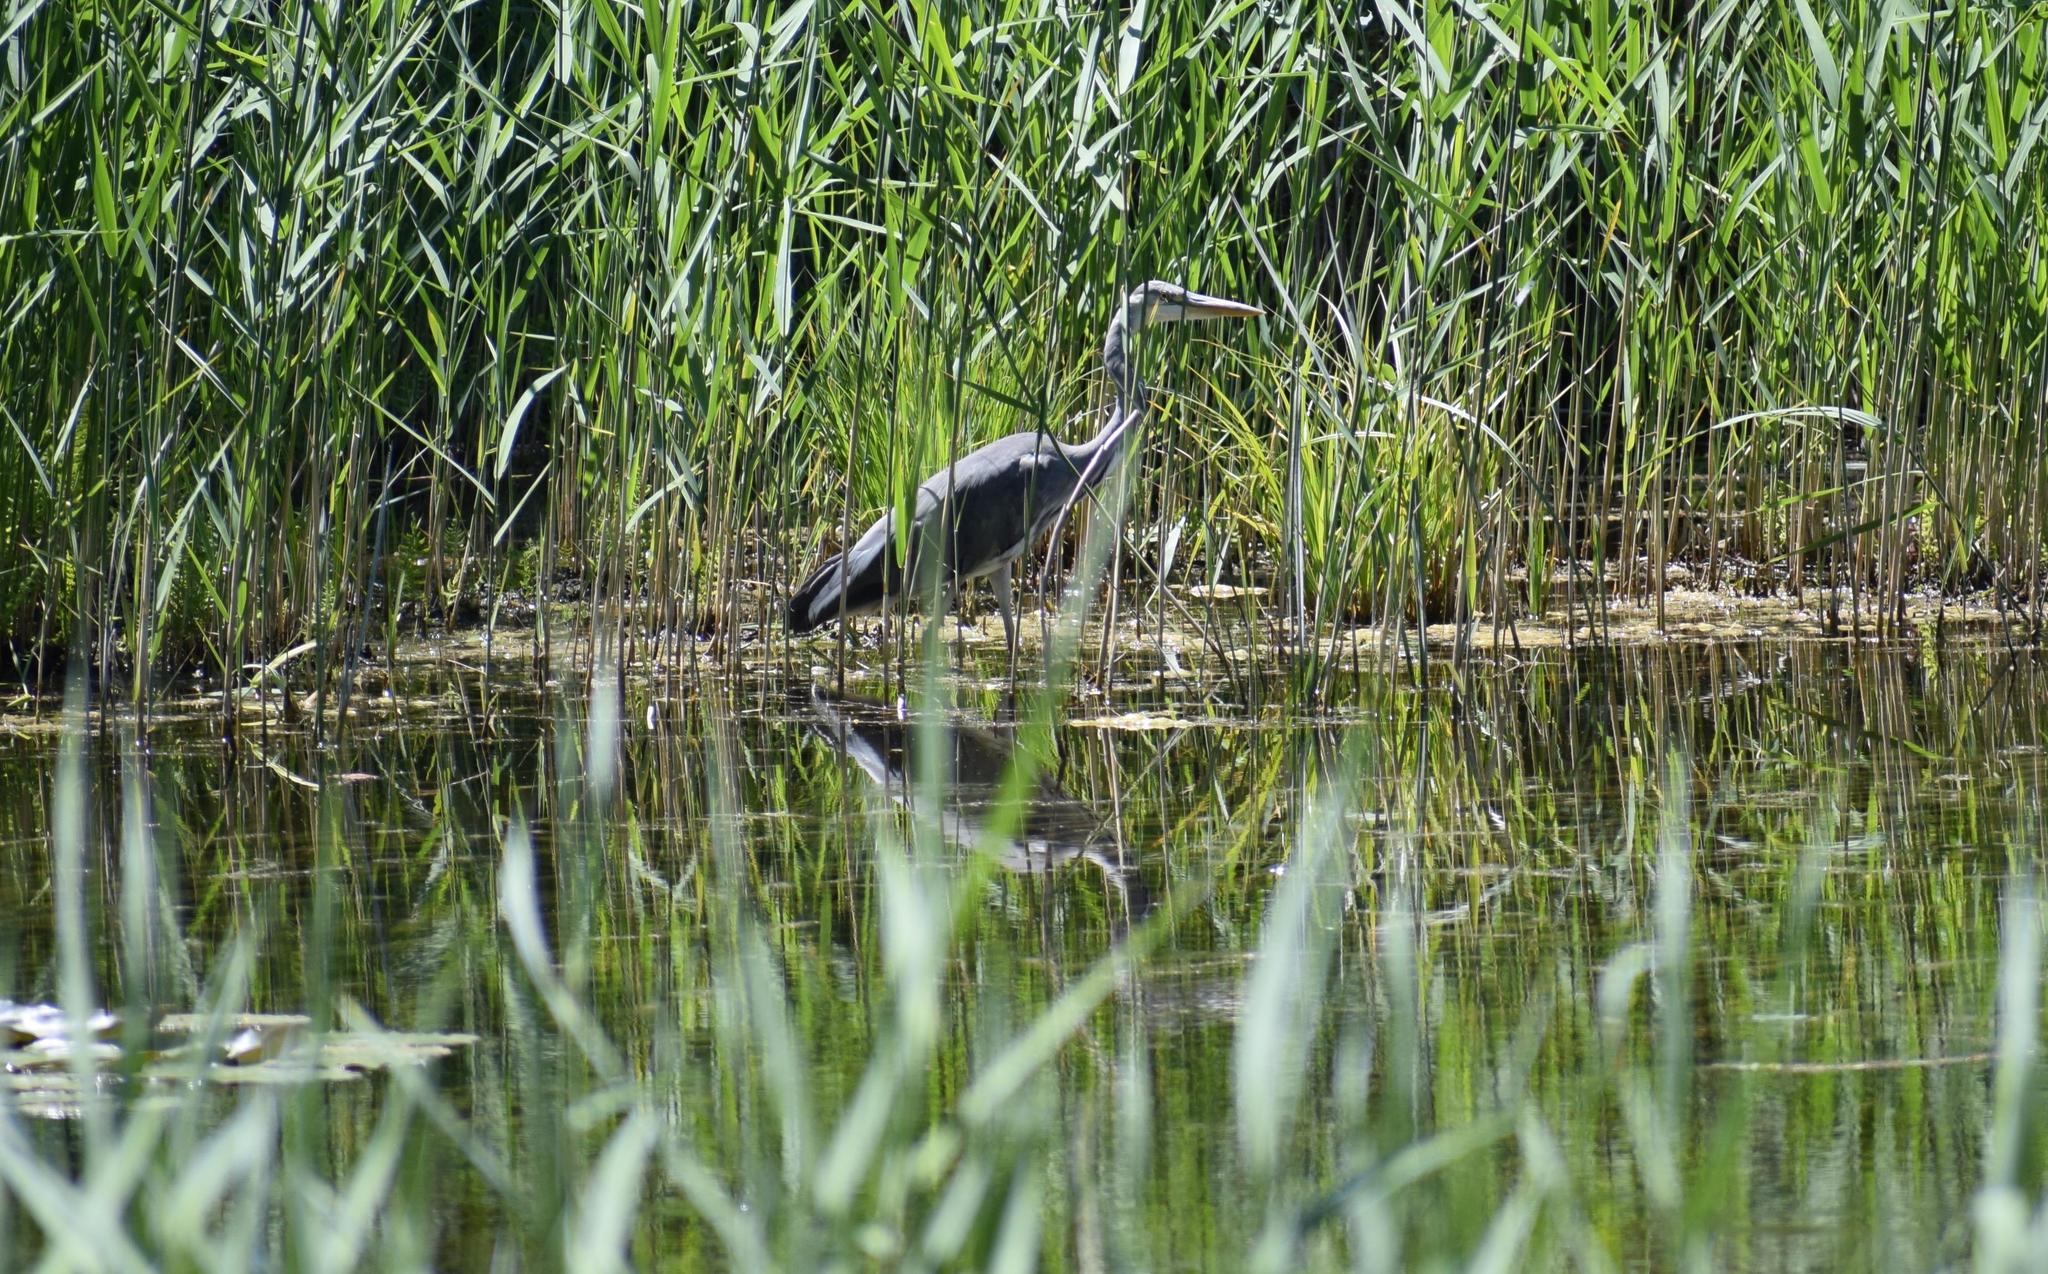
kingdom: Animalia
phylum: Chordata
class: Aves
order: Pelecaniformes
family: Ardeidae
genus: Ardea
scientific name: Ardea cinerea
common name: Grey heron
